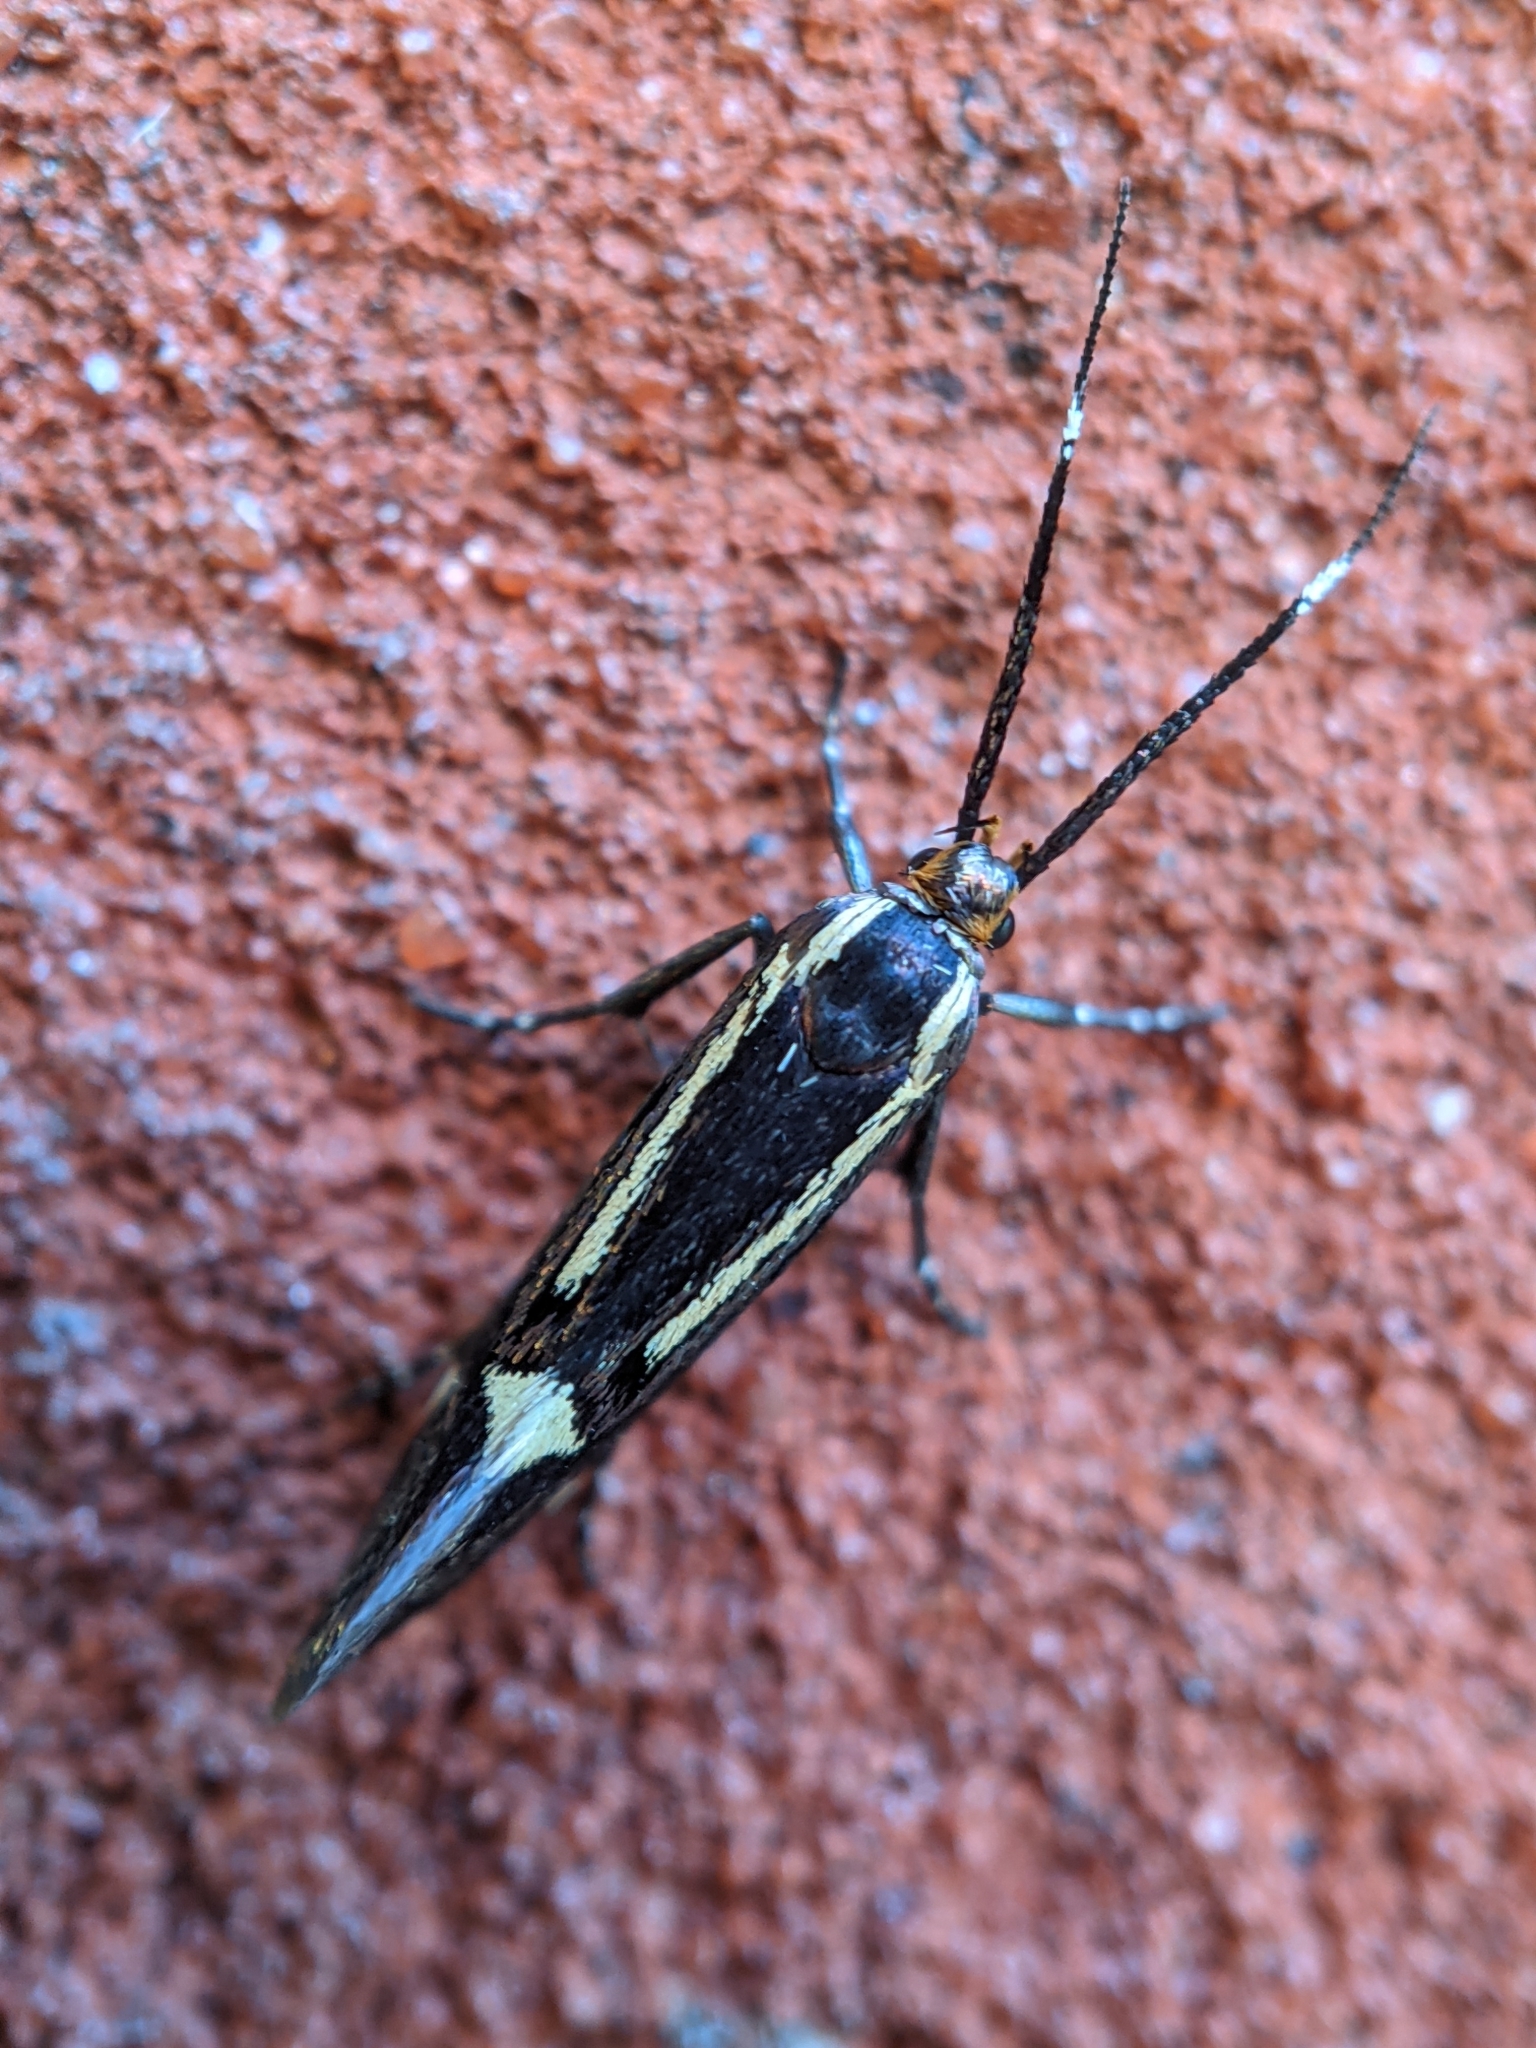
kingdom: Animalia
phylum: Arthropoda
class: Insecta
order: Lepidoptera
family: Oecophoridae
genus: Dafa
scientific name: Dafa Esperia sulphurella
